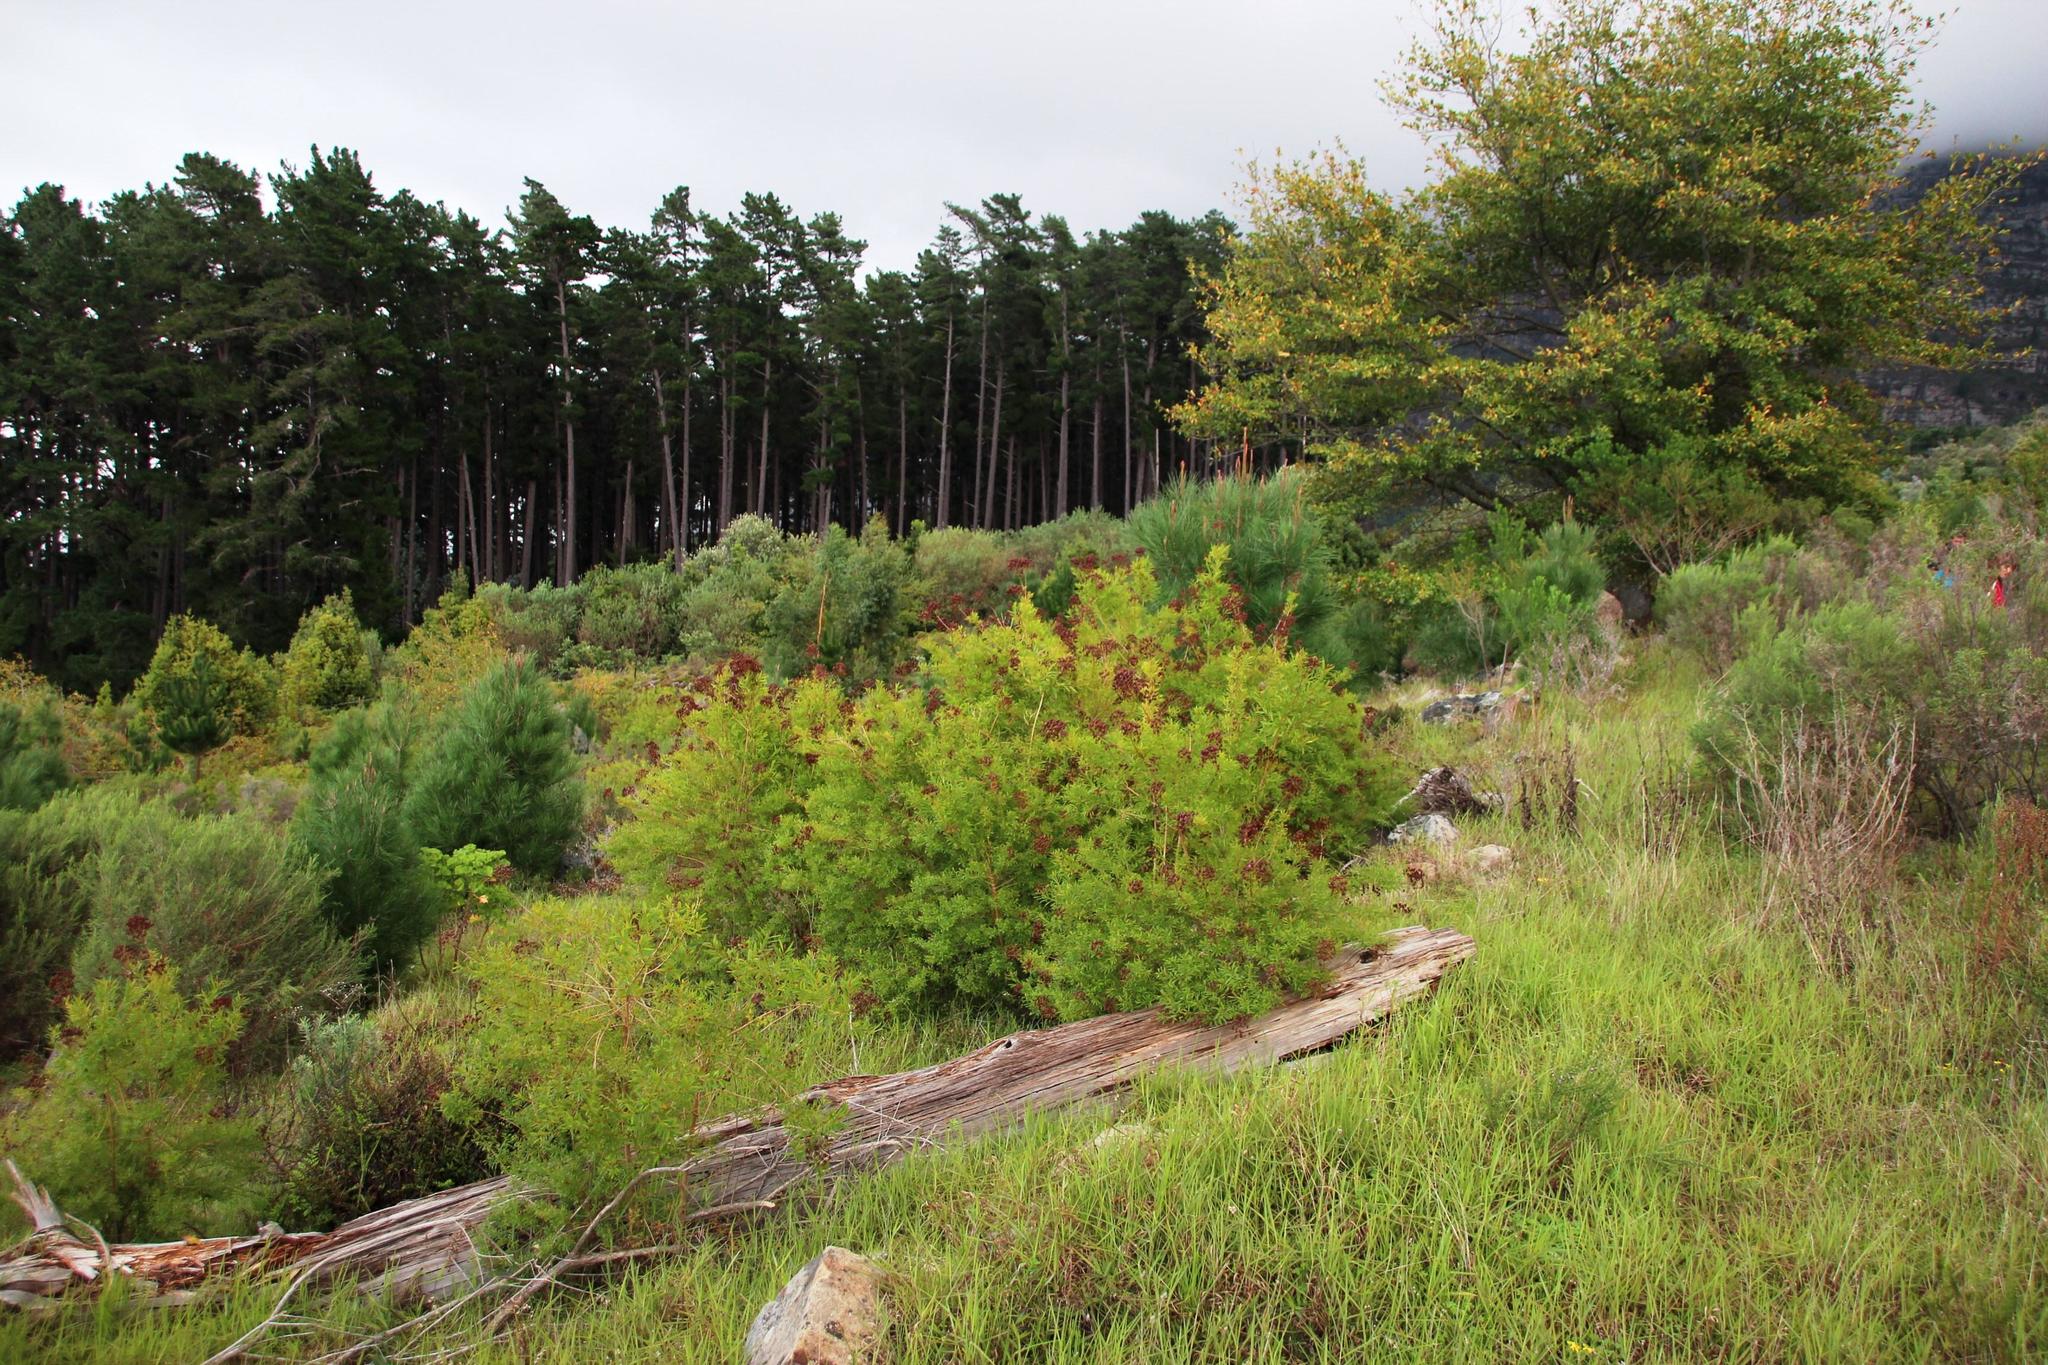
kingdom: Plantae
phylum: Tracheophyta
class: Magnoliopsida
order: Malpighiales
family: Hypericaceae
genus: Hypericum
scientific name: Hypericum canariense
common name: Canary island st. johnswort
